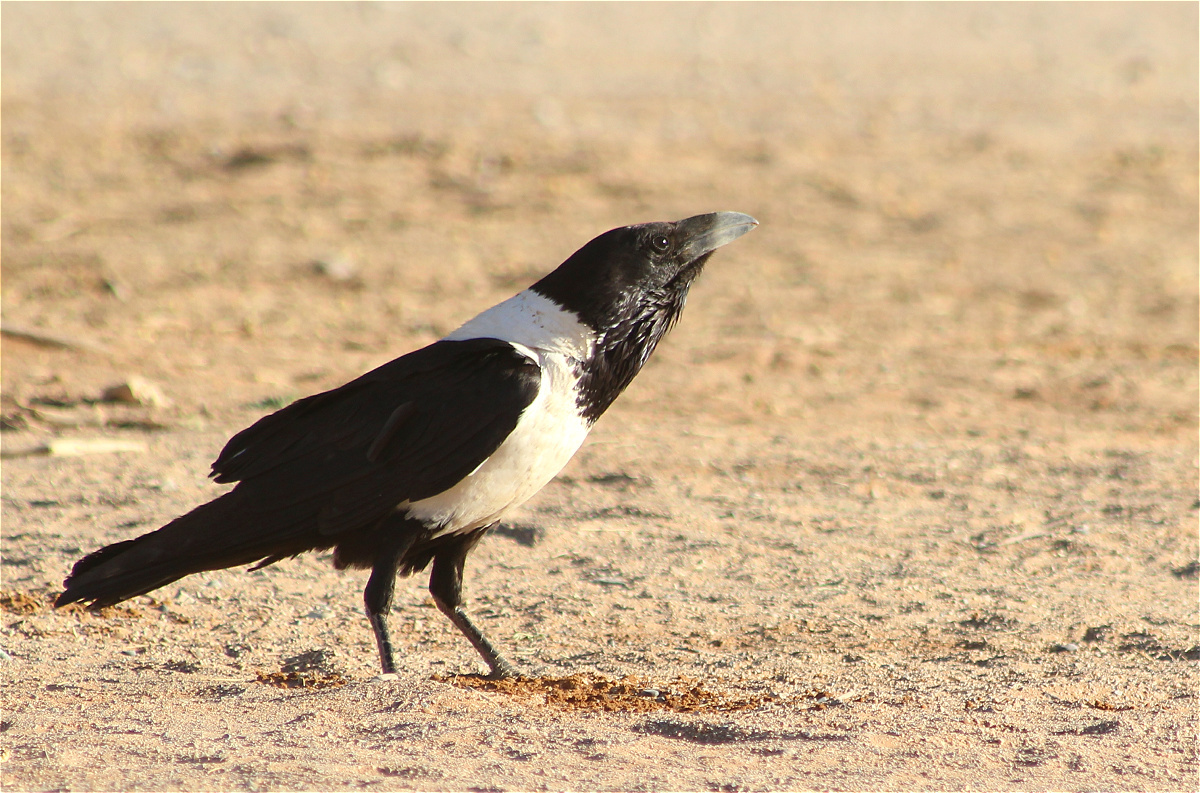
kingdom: Animalia
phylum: Chordata
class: Aves
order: Passeriformes
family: Corvidae
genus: Corvus
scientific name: Corvus albus
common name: Pied crow
